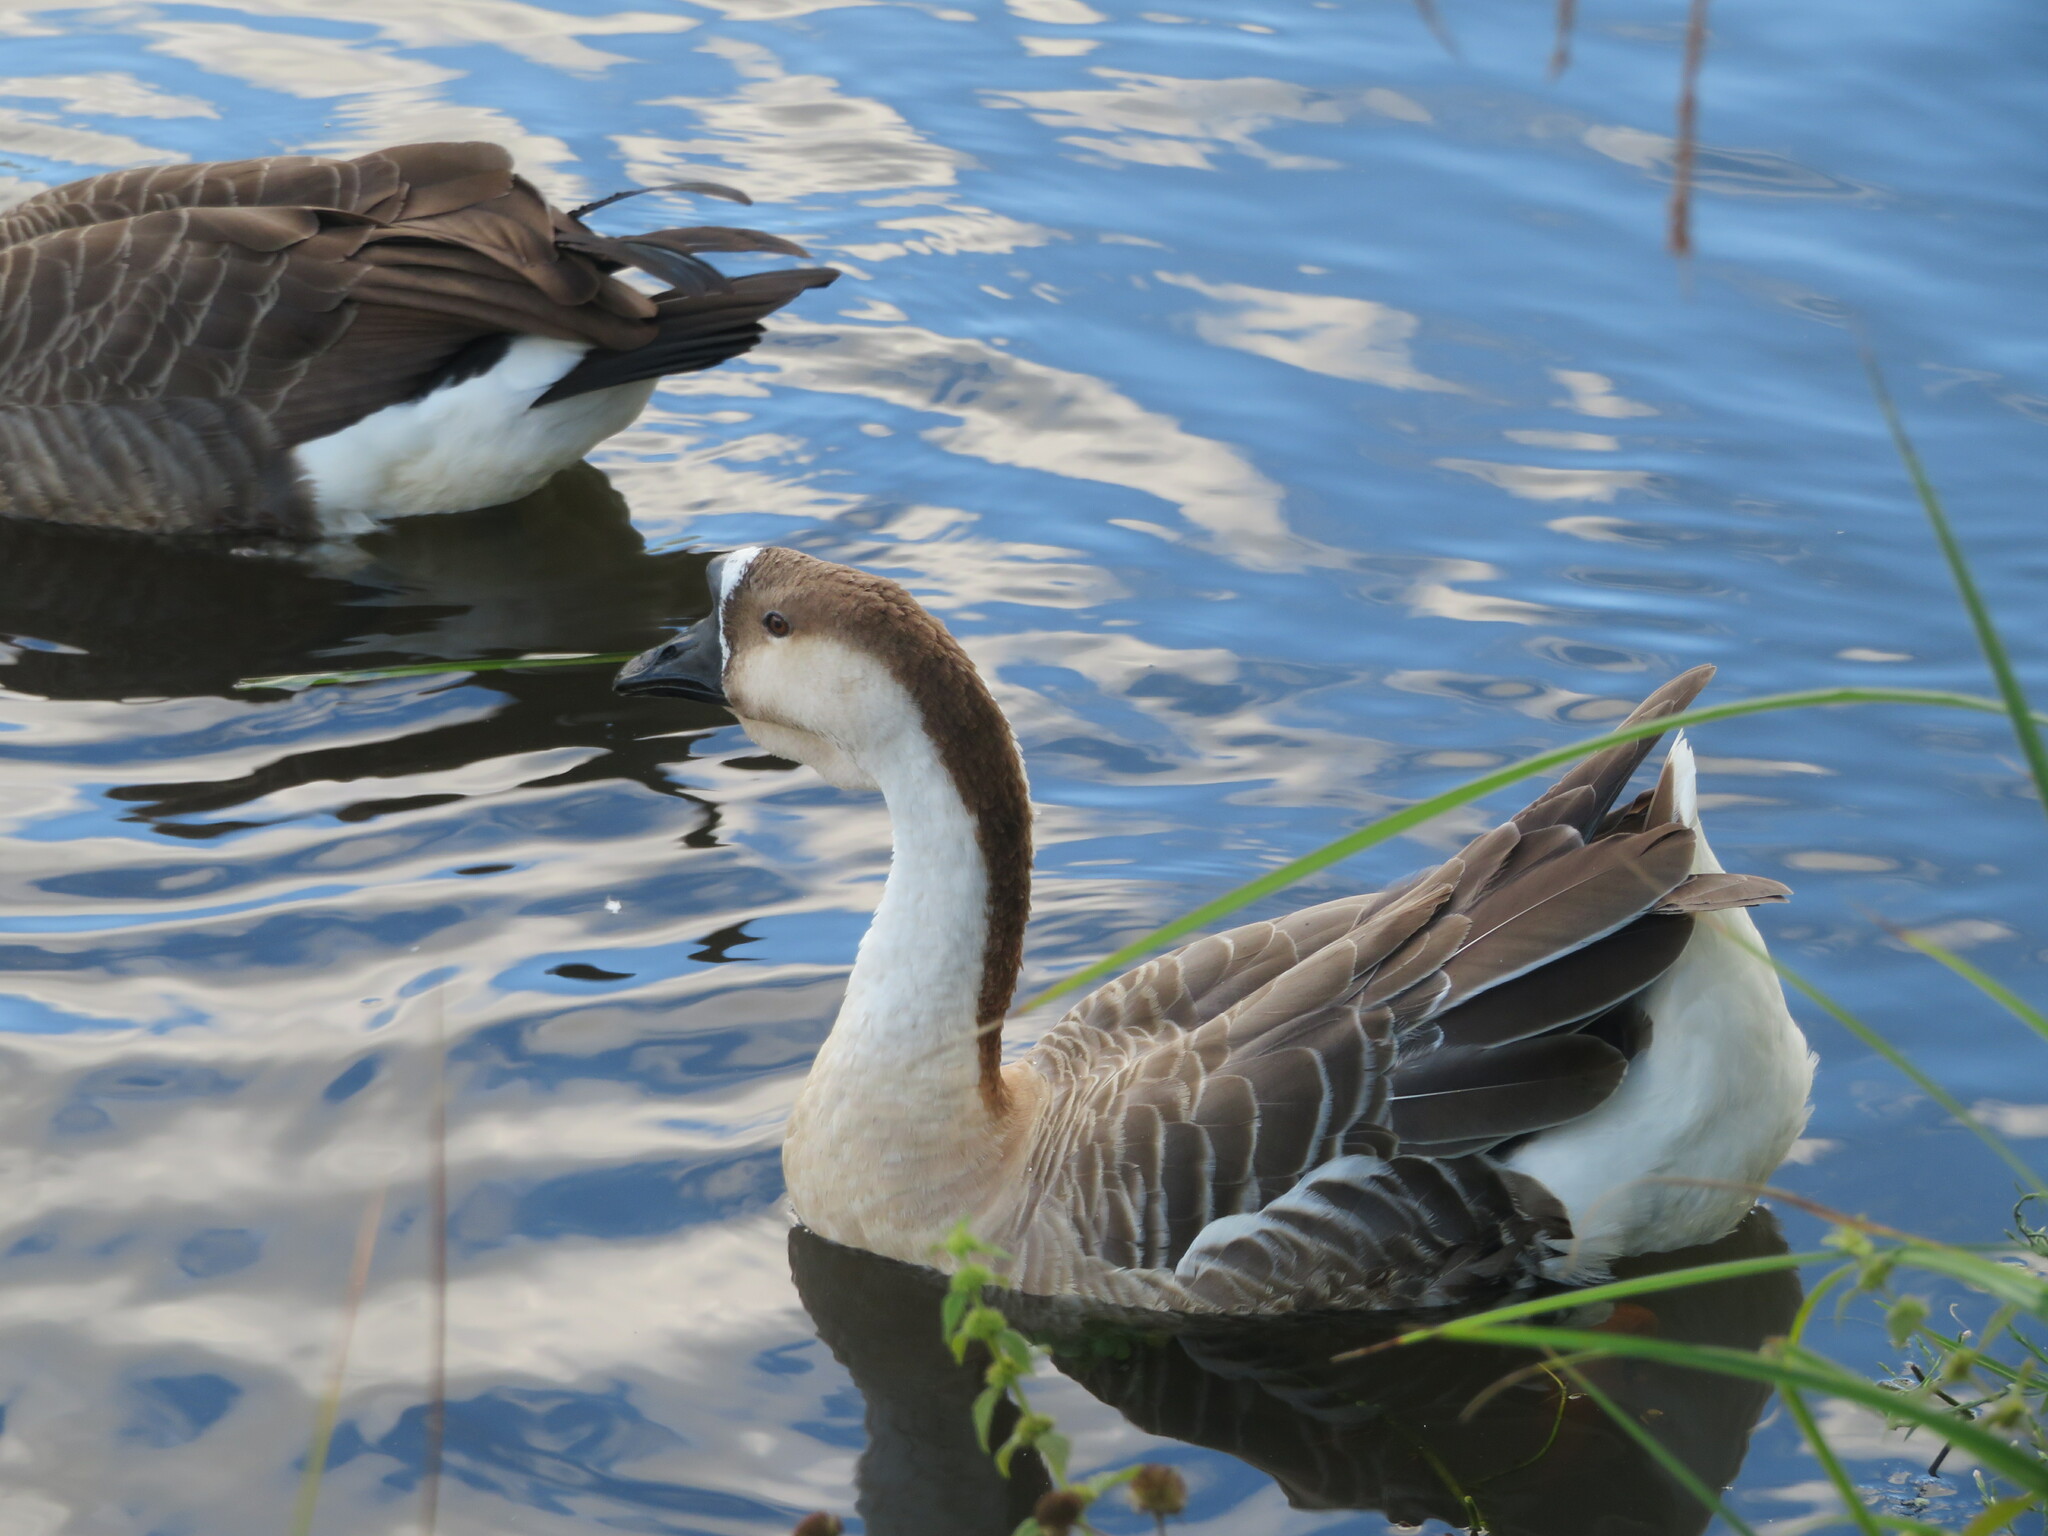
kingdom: Animalia
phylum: Chordata
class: Aves
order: Anseriformes
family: Anatidae
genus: Anser
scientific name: Anser cygnoides
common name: Swan goose
